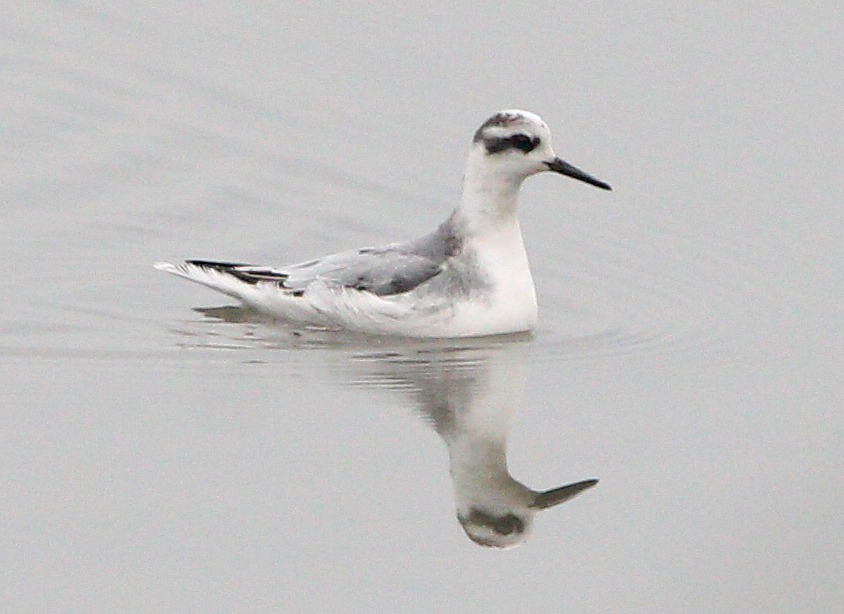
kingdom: Animalia
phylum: Chordata
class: Aves
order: Charadriiformes
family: Scolopacidae
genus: Phalaropus
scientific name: Phalaropus fulicarius
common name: Red phalarope
